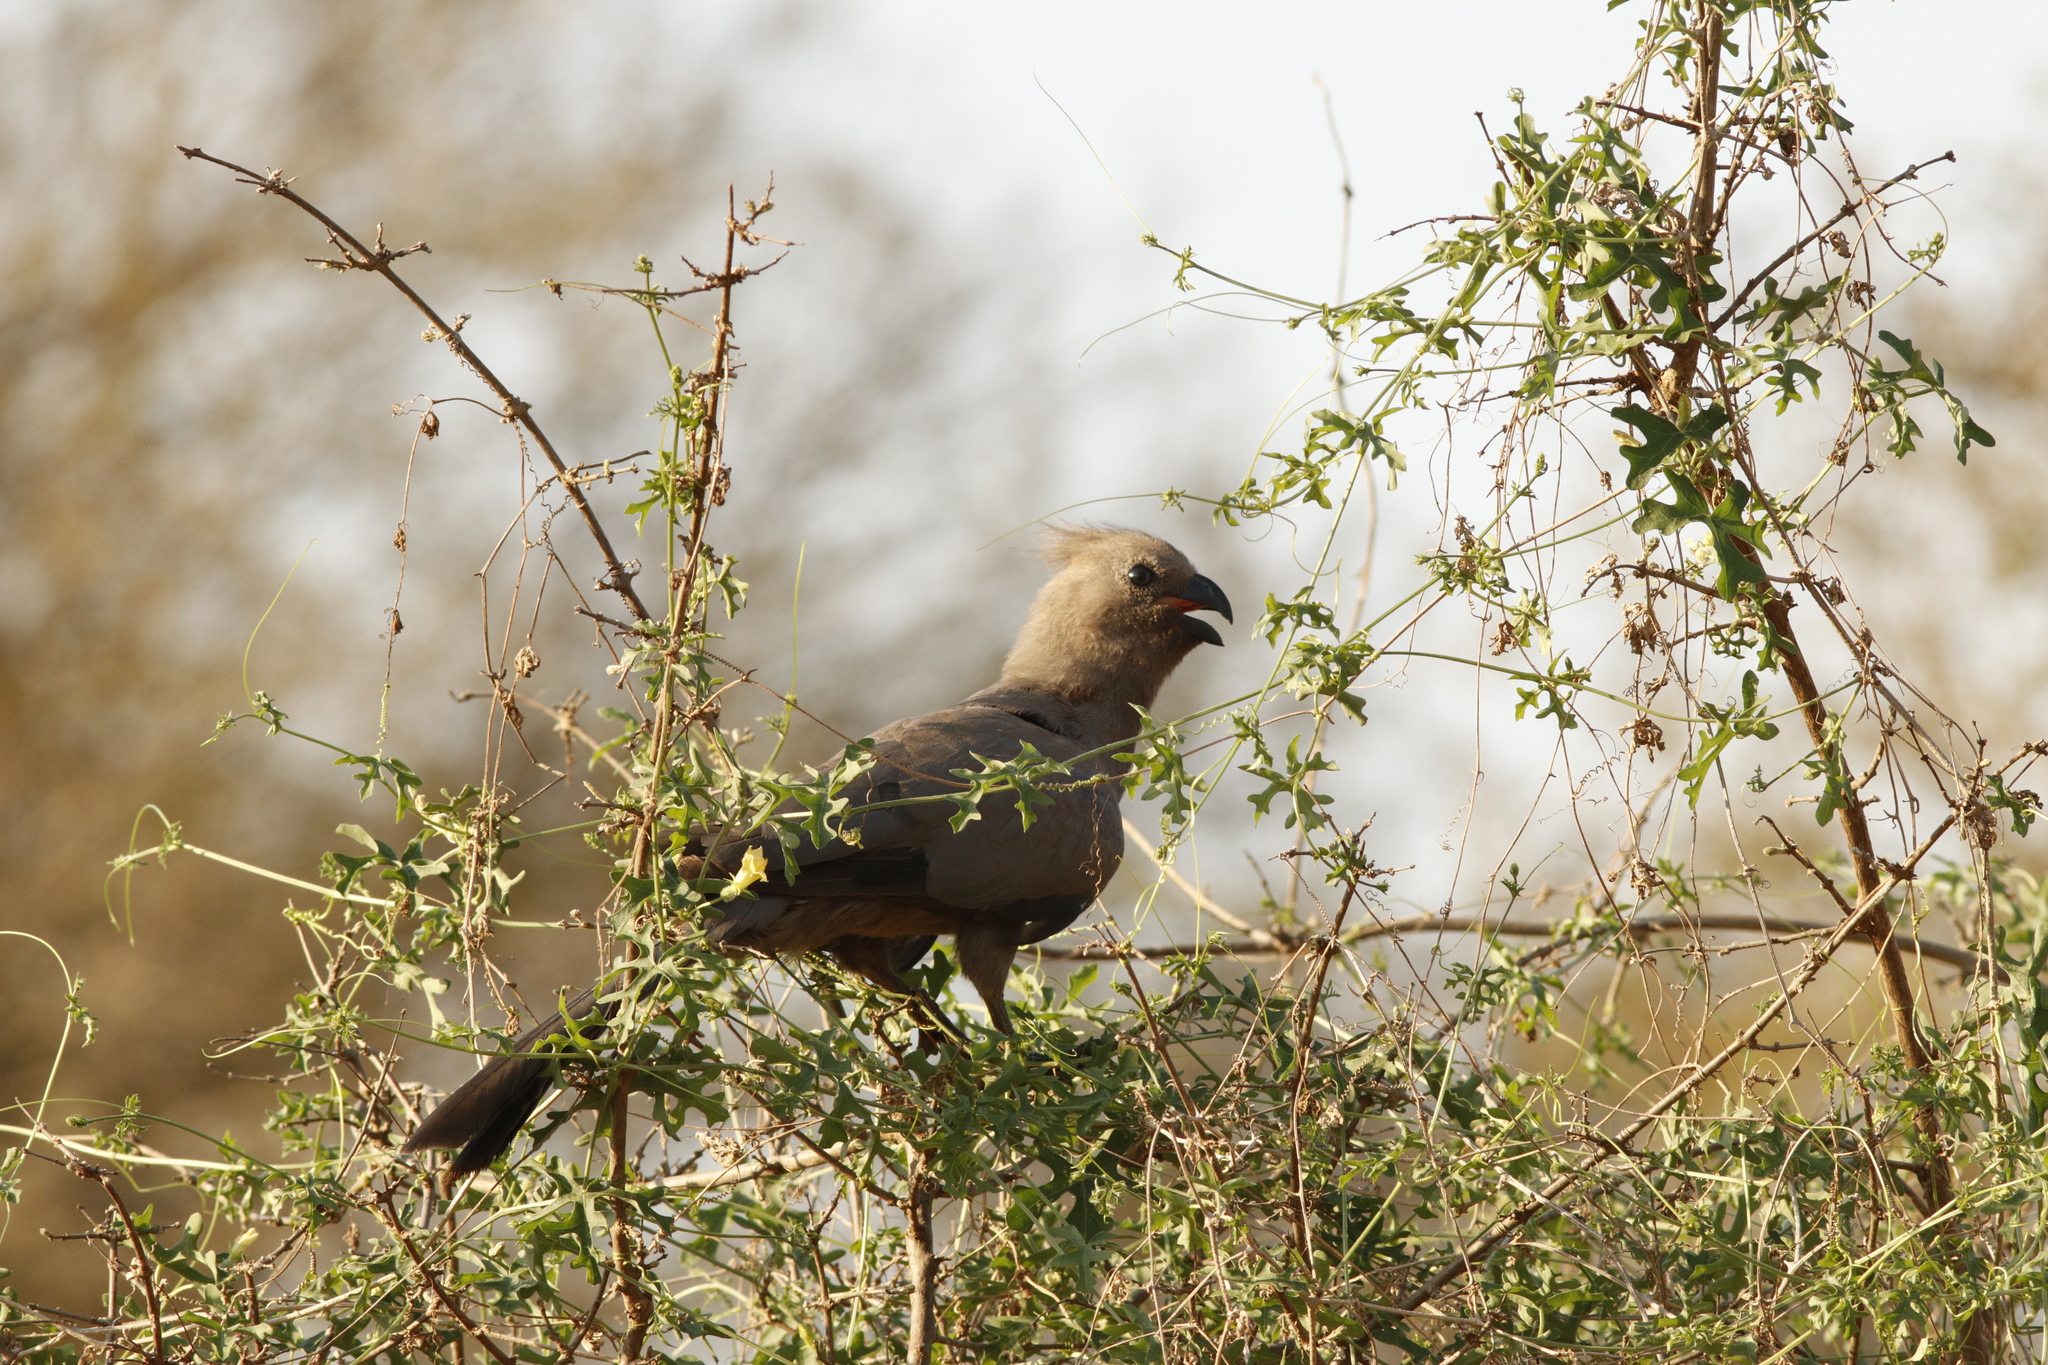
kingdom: Animalia
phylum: Chordata
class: Aves
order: Musophagiformes
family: Musophagidae
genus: Corythaixoides
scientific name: Corythaixoides concolor
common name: Grey go-away-bird
